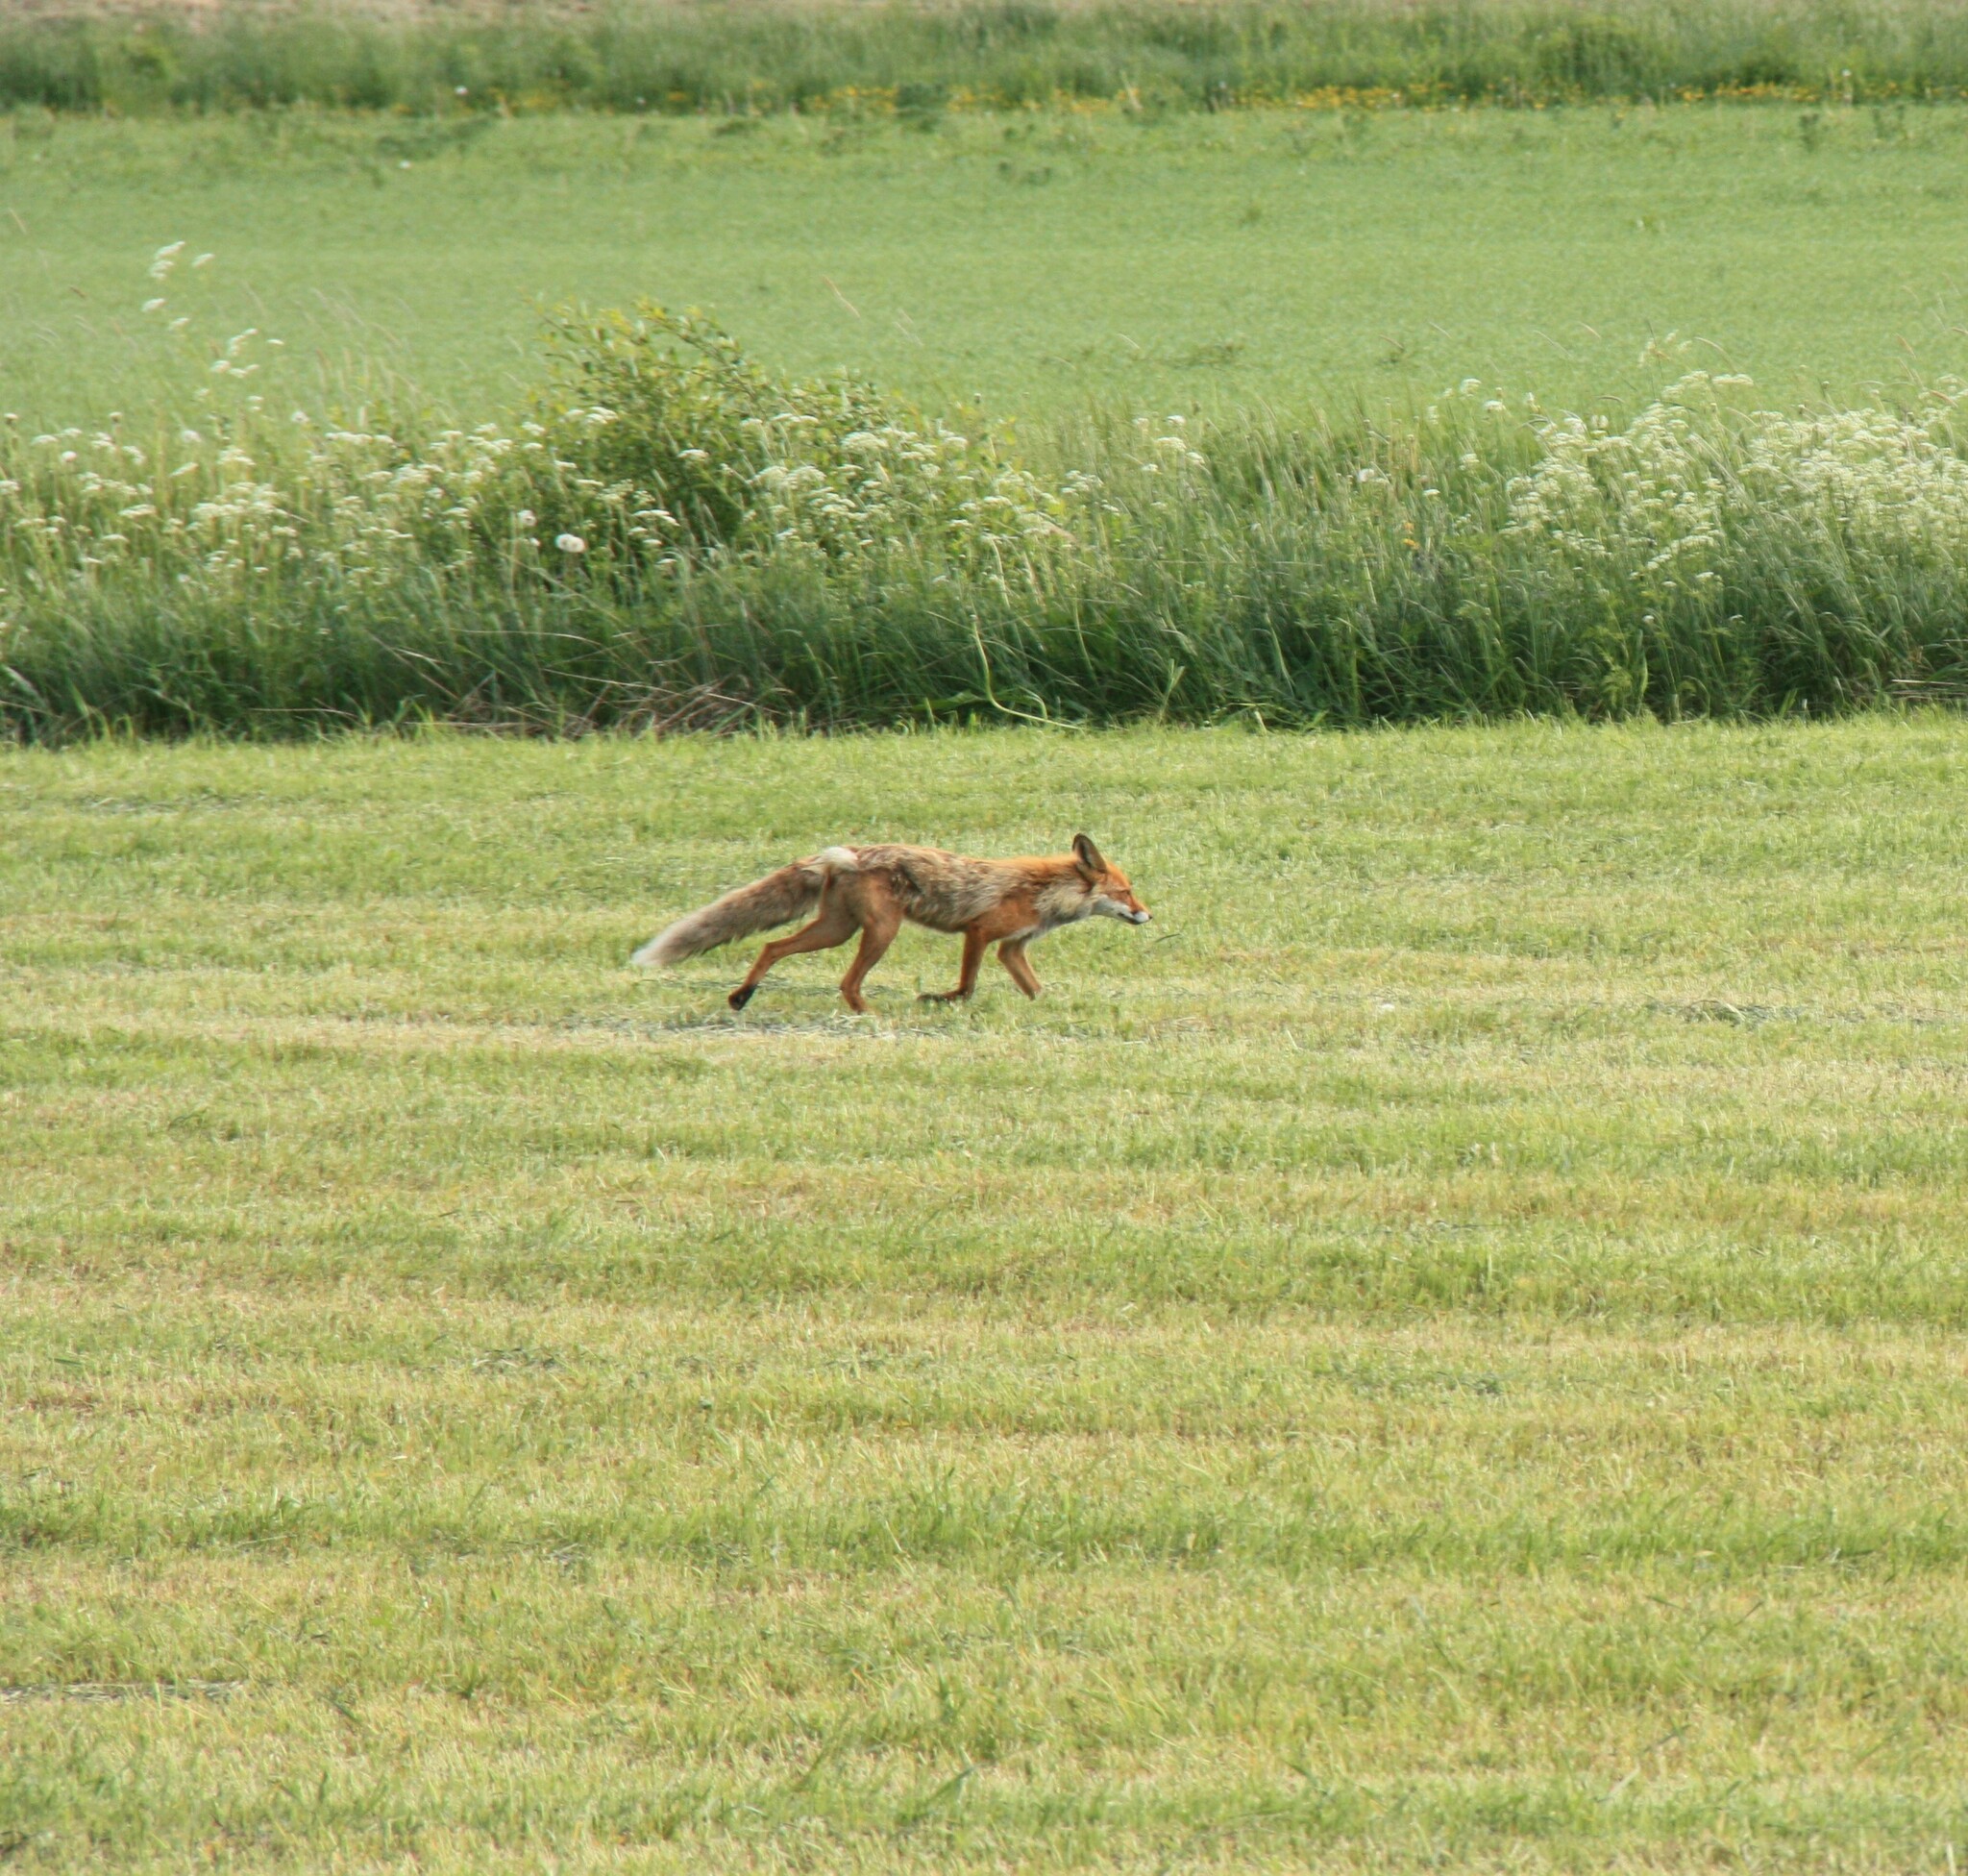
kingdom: Animalia
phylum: Chordata
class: Mammalia
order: Carnivora
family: Canidae
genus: Vulpes
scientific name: Vulpes vulpes
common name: Red fox
